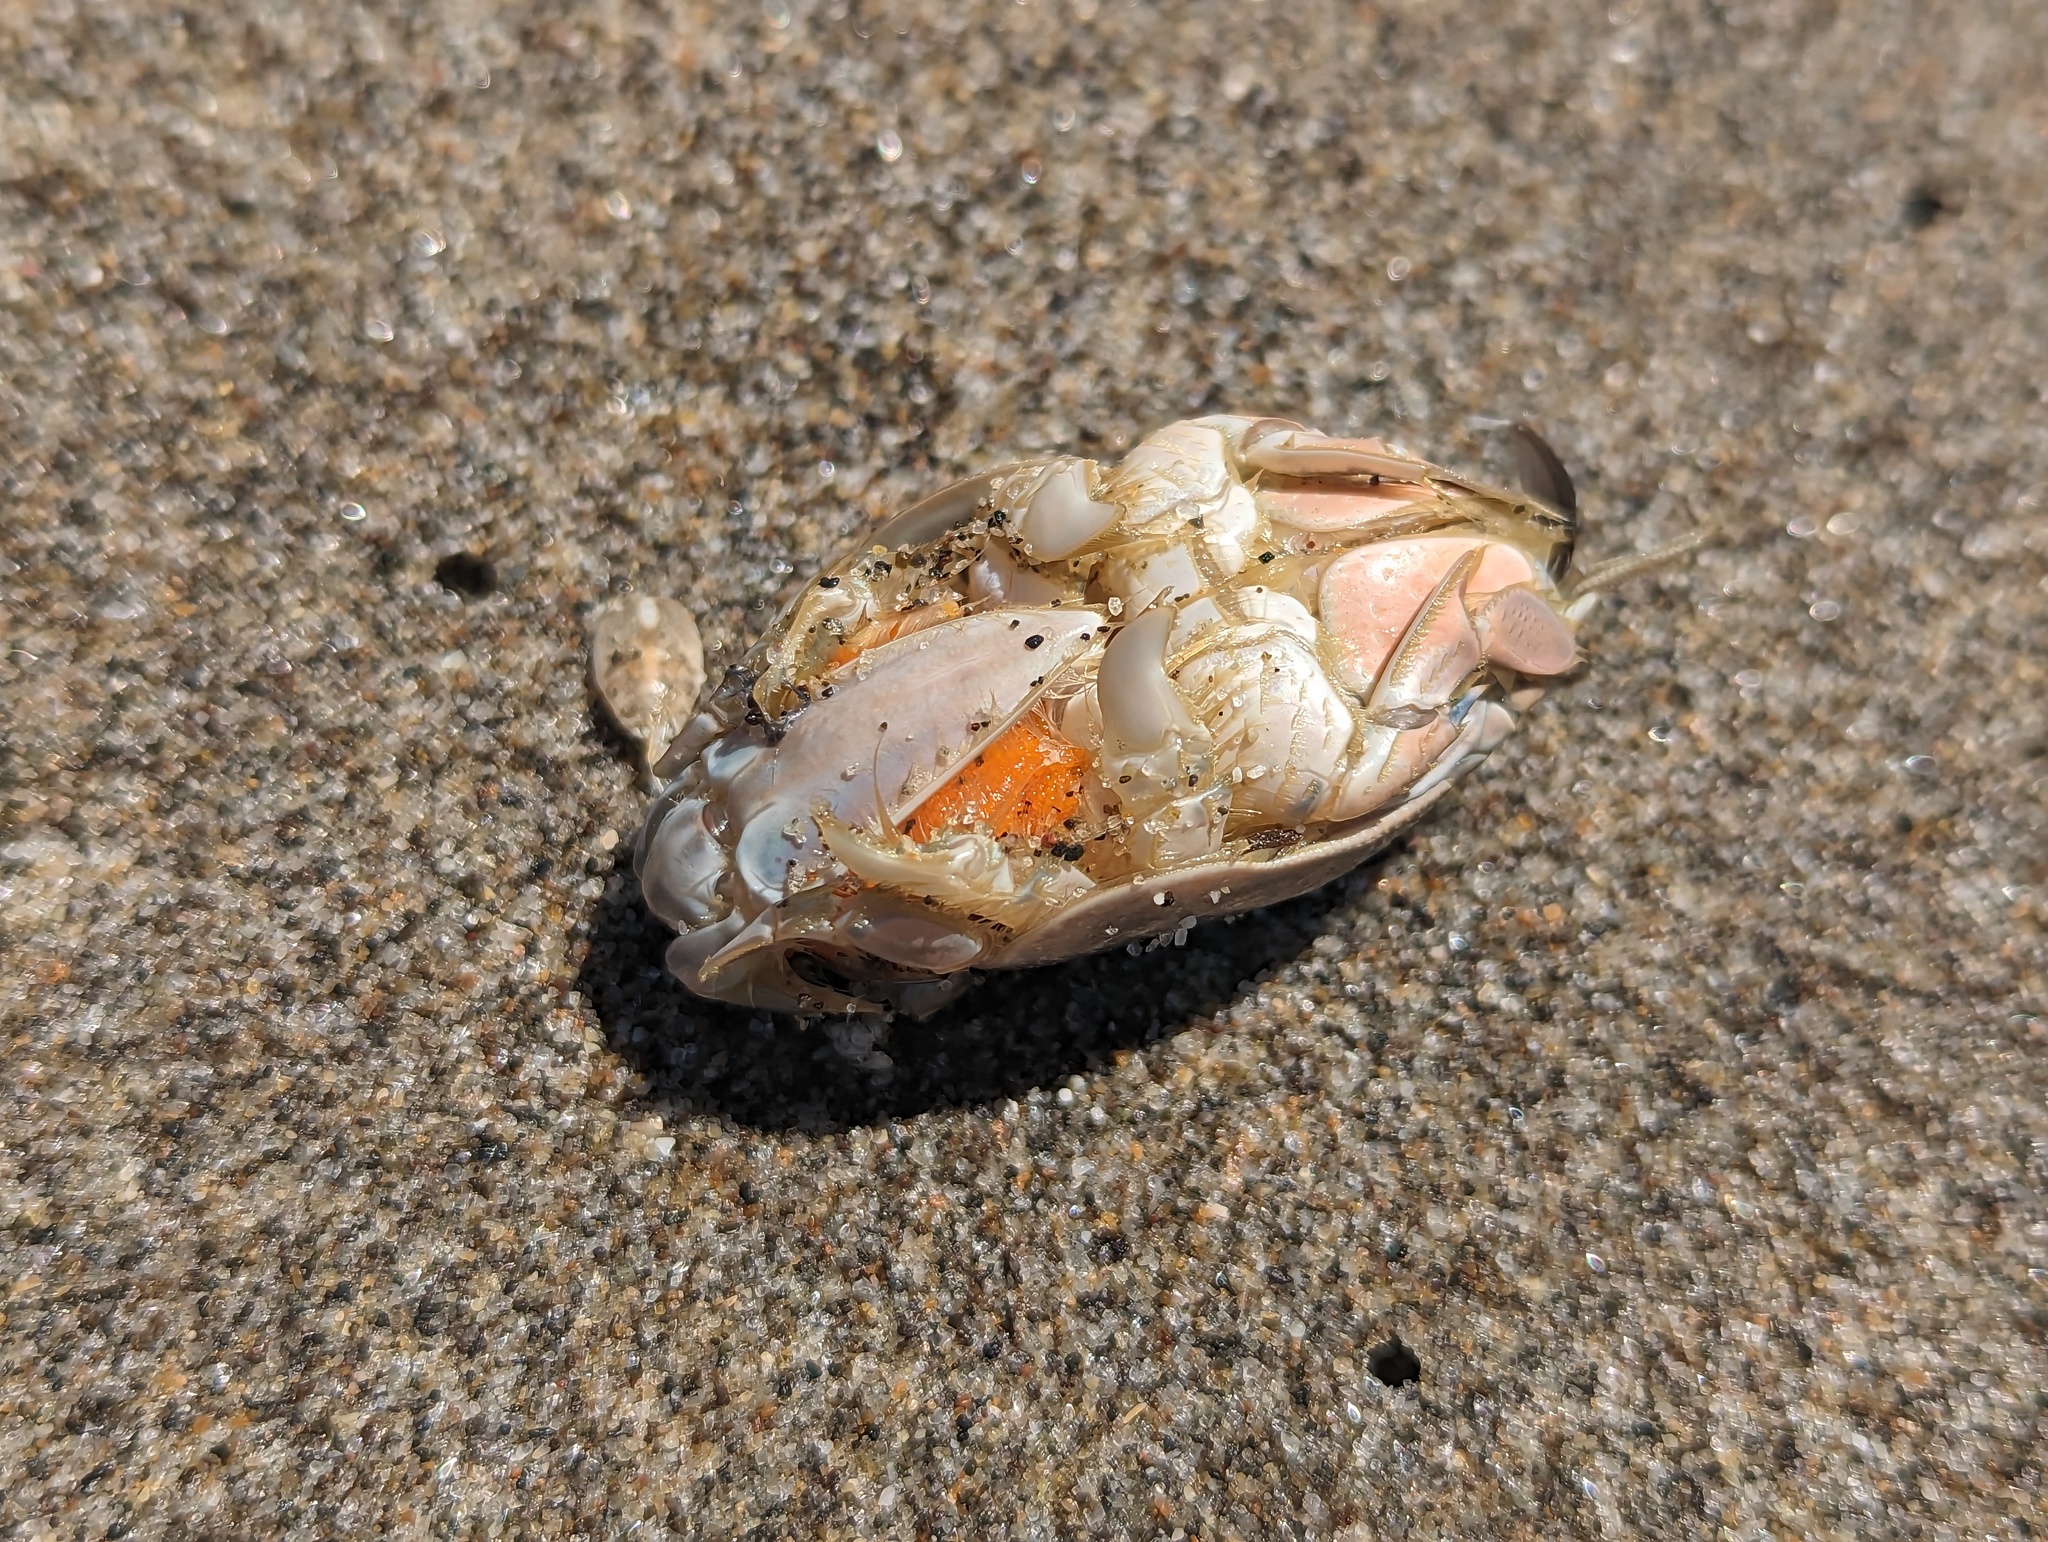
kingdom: Animalia
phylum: Arthropoda
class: Malacostraca
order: Decapoda
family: Hippidae
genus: Emerita
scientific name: Emerita analoga
